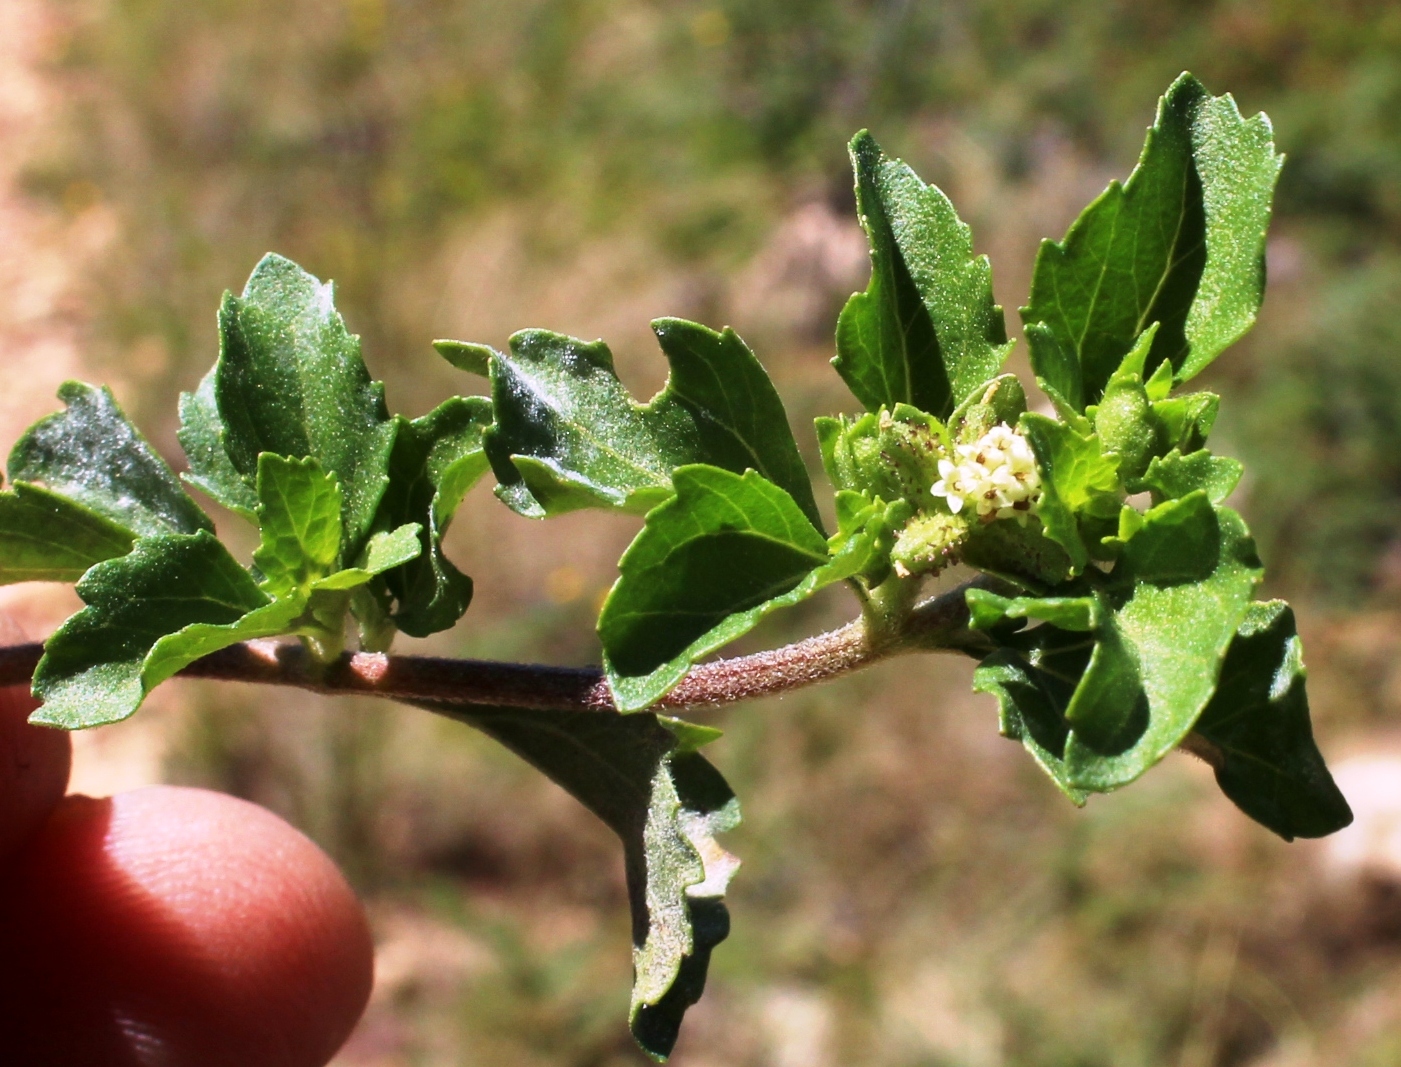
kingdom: Plantae
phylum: Tracheophyta
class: Magnoliopsida
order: Asterales
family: Asteraceae
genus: Acanthospermum
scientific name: Acanthospermum australe
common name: Paraguayan starbur
